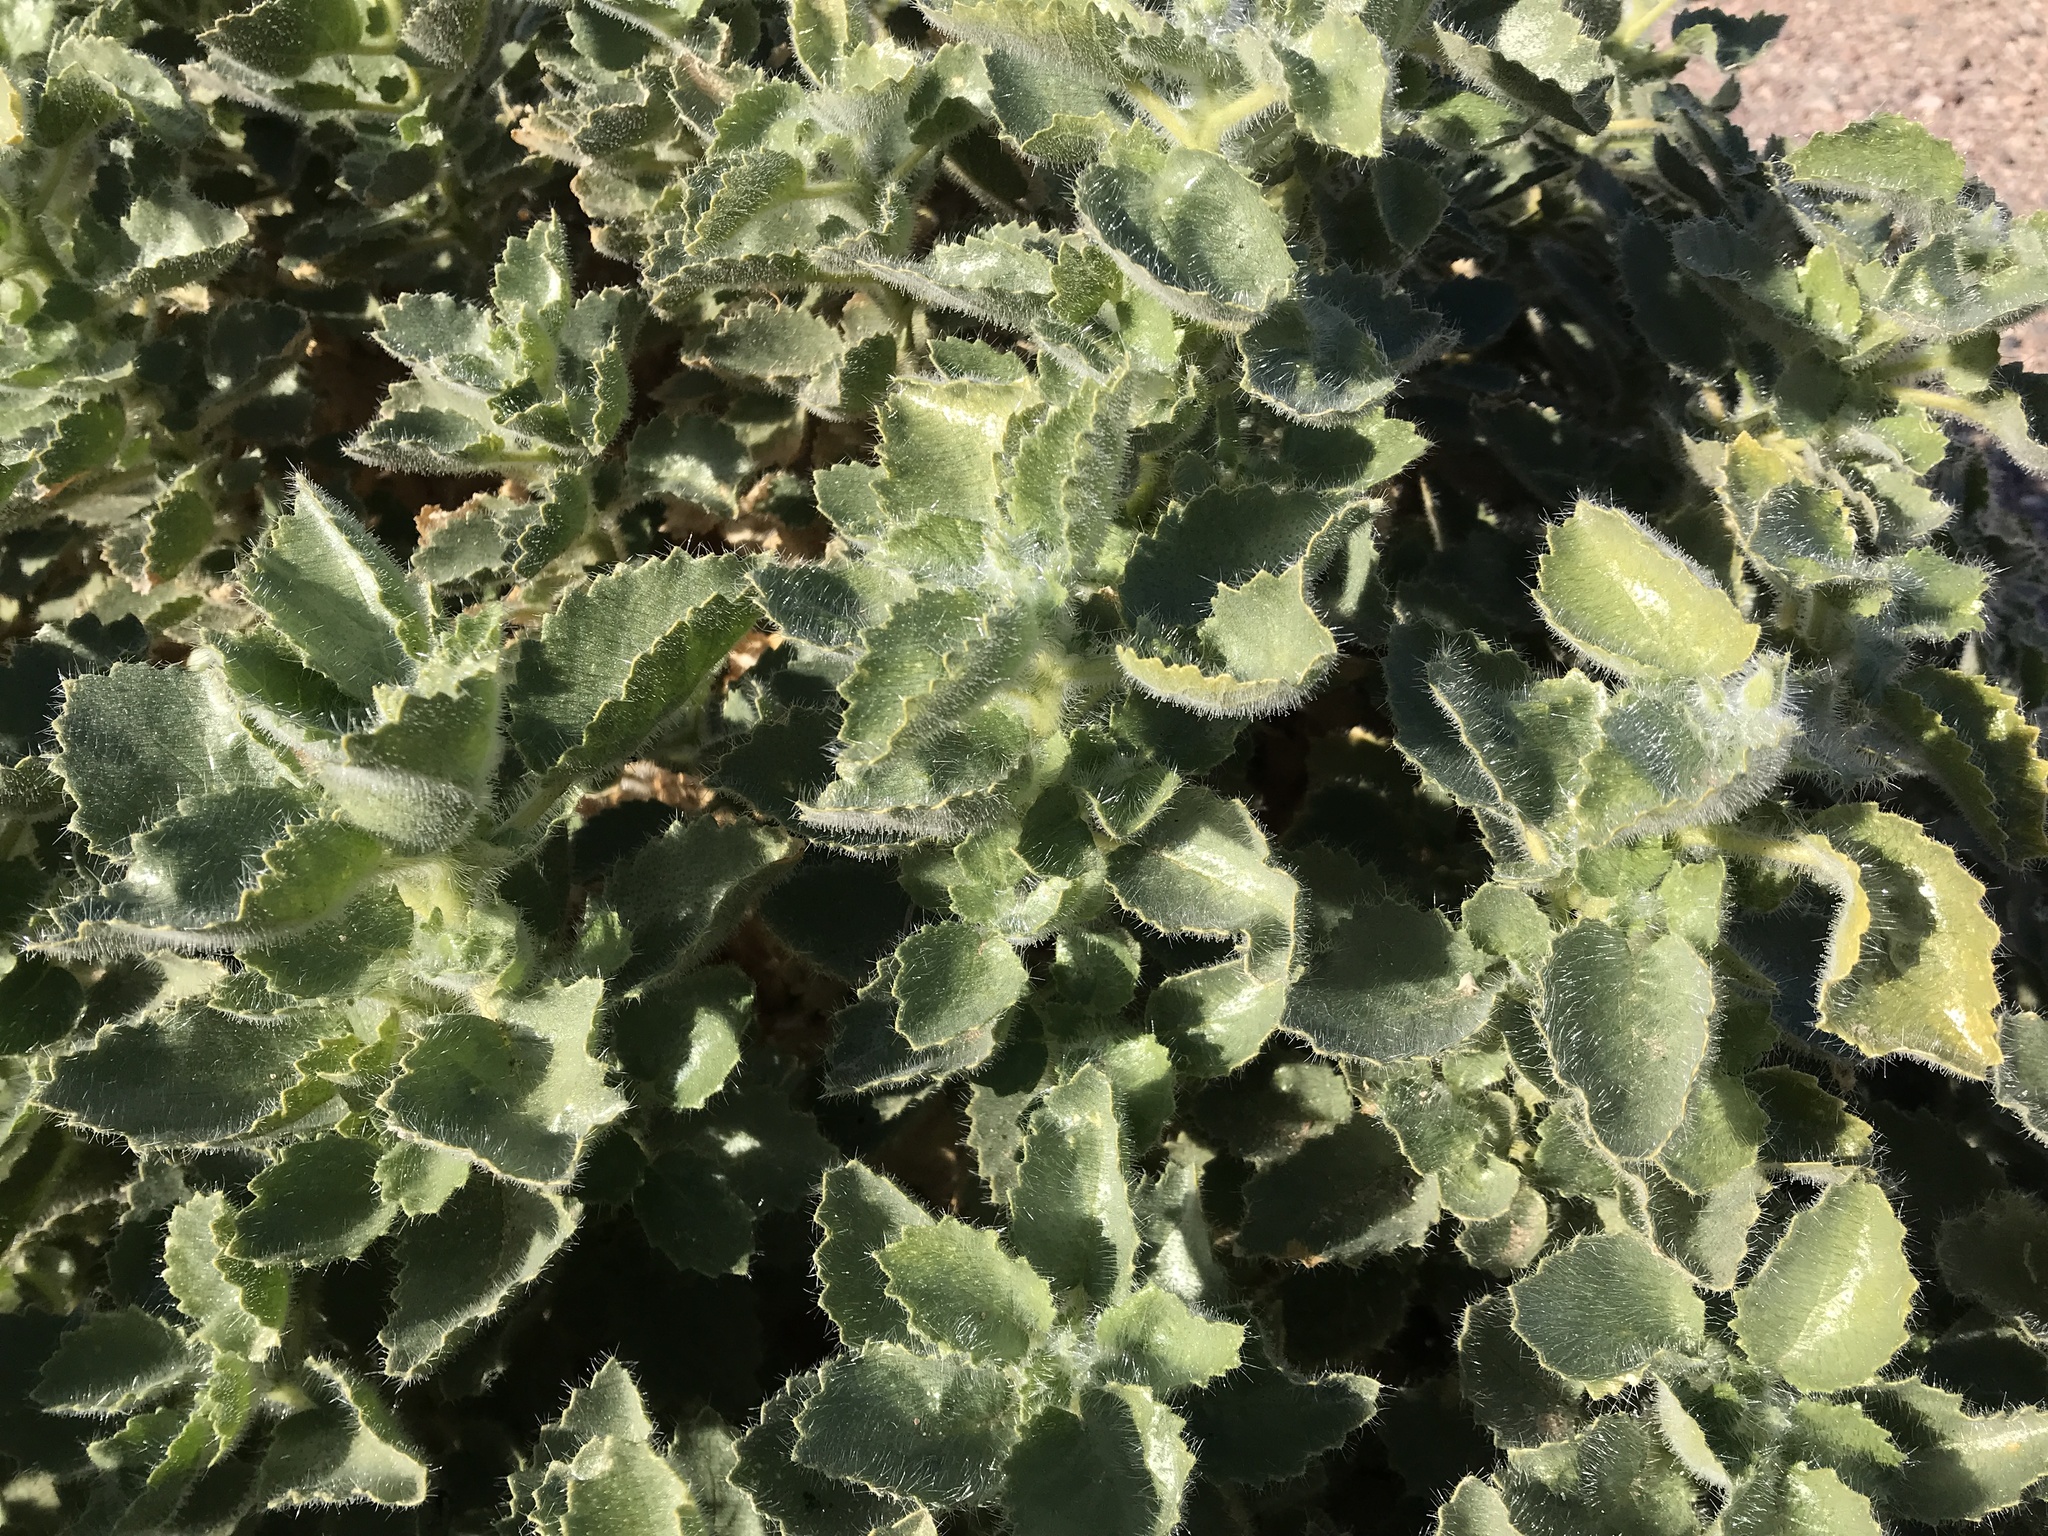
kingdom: Plantae
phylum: Tracheophyta
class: Magnoliopsida
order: Cornales
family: Loasaceae
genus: Eucnide
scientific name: Eucnide urens
